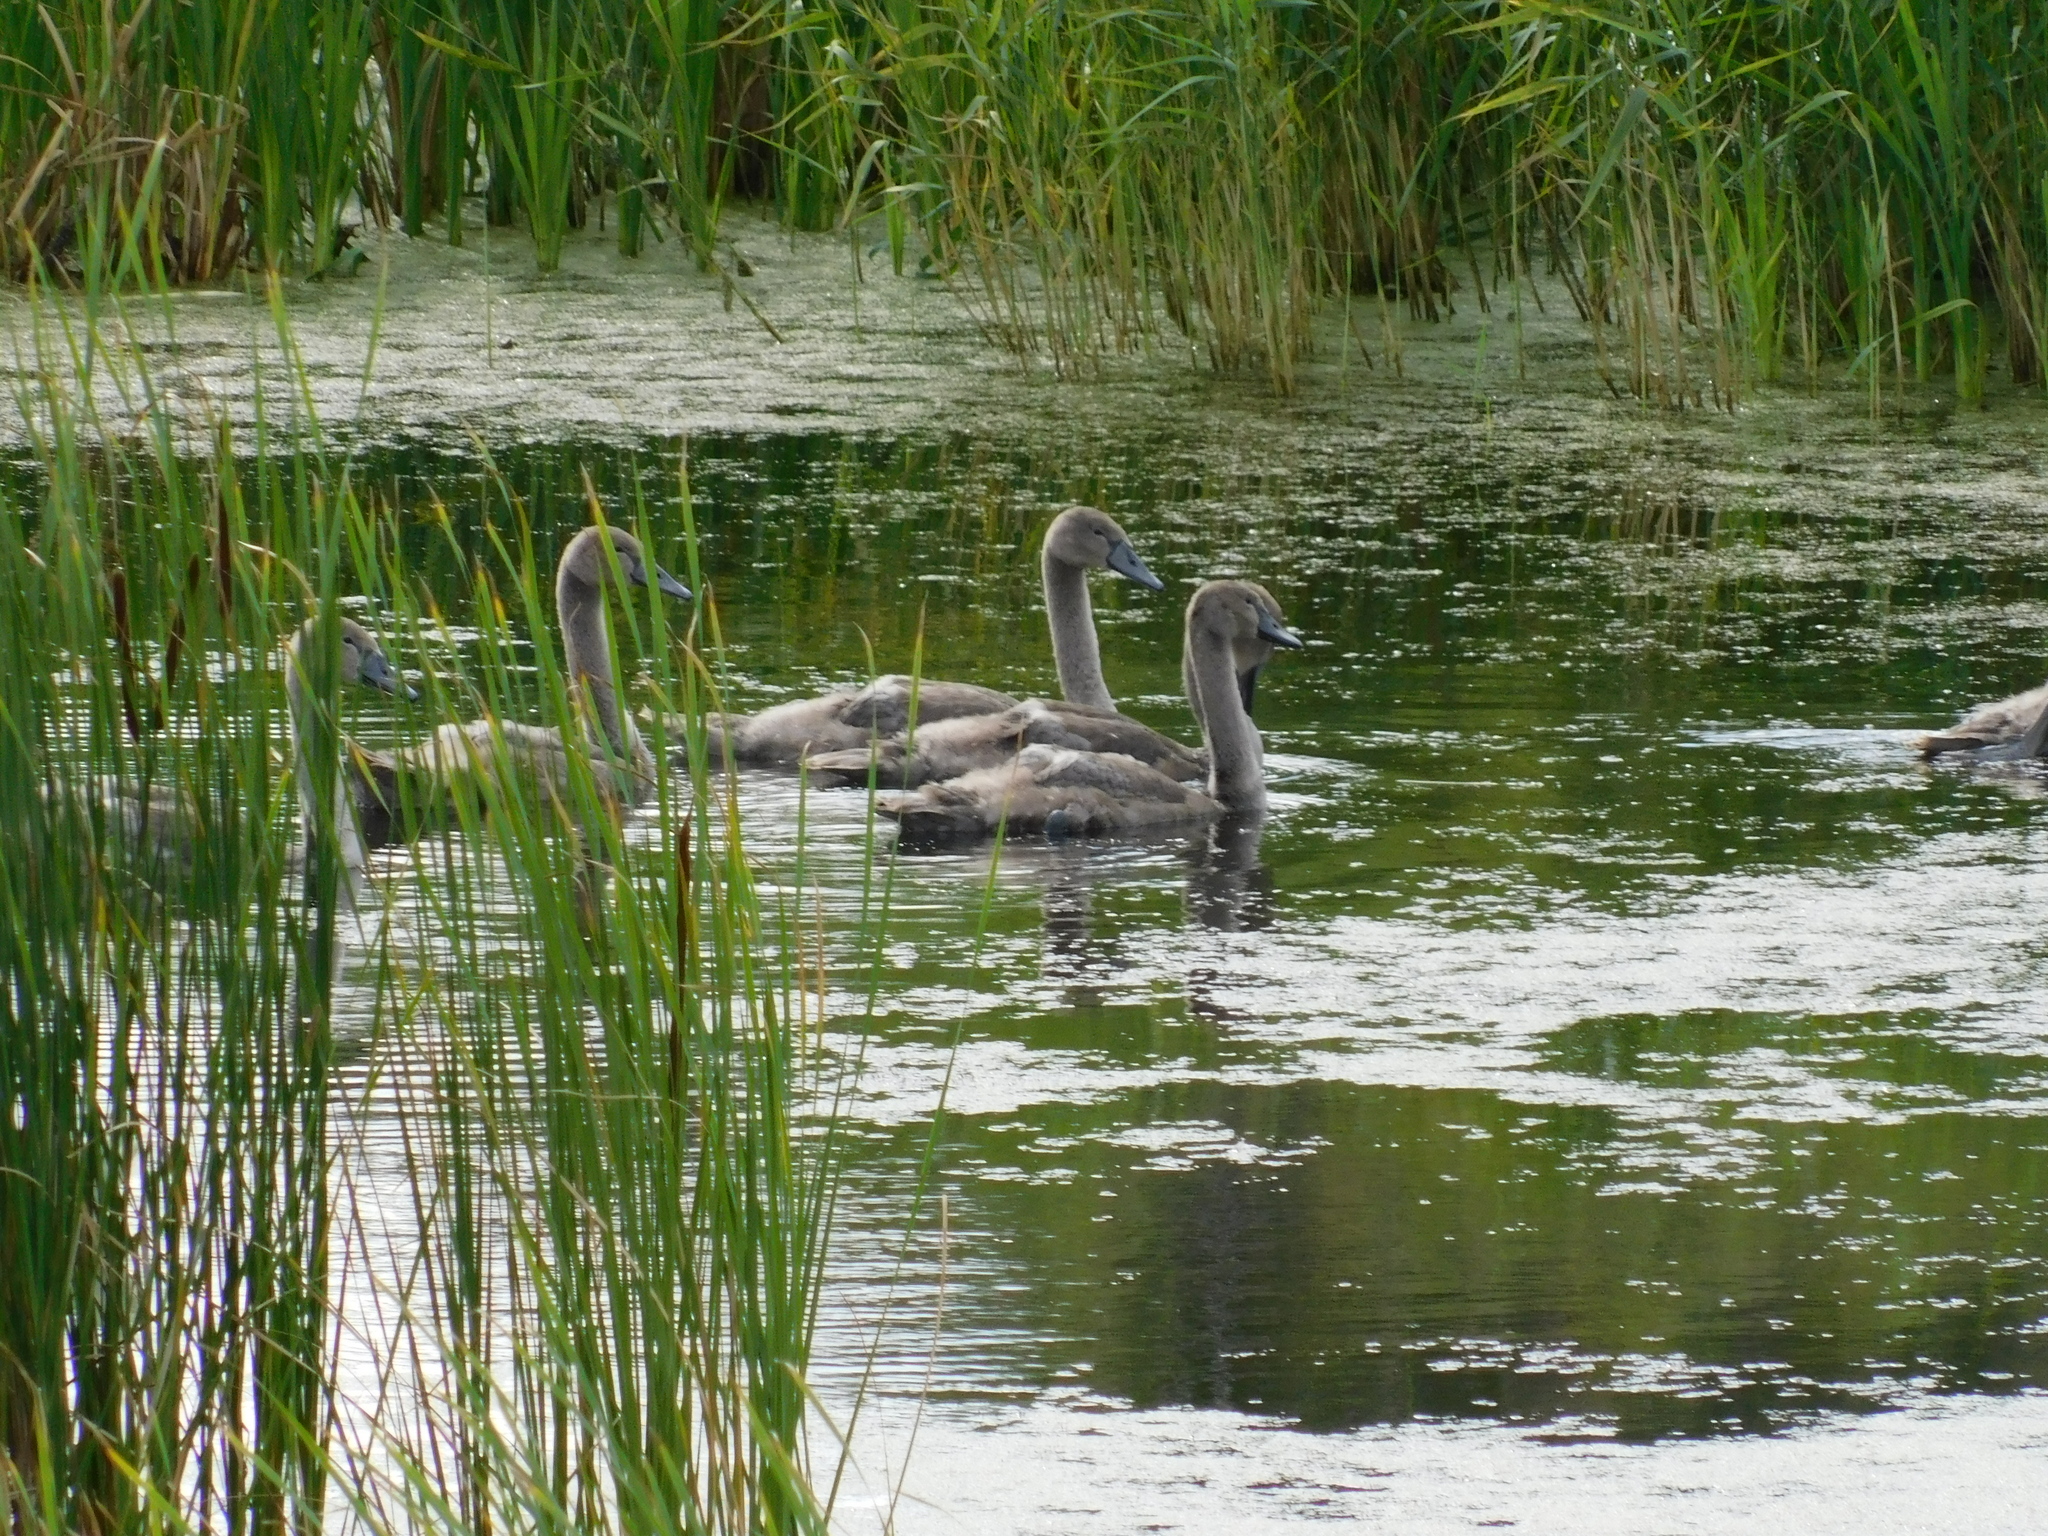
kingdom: Animalia
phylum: Chordata
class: Aves
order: Anseriformes
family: Anatidae
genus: Cygnus
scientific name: Cygnus olor
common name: Mute swan
